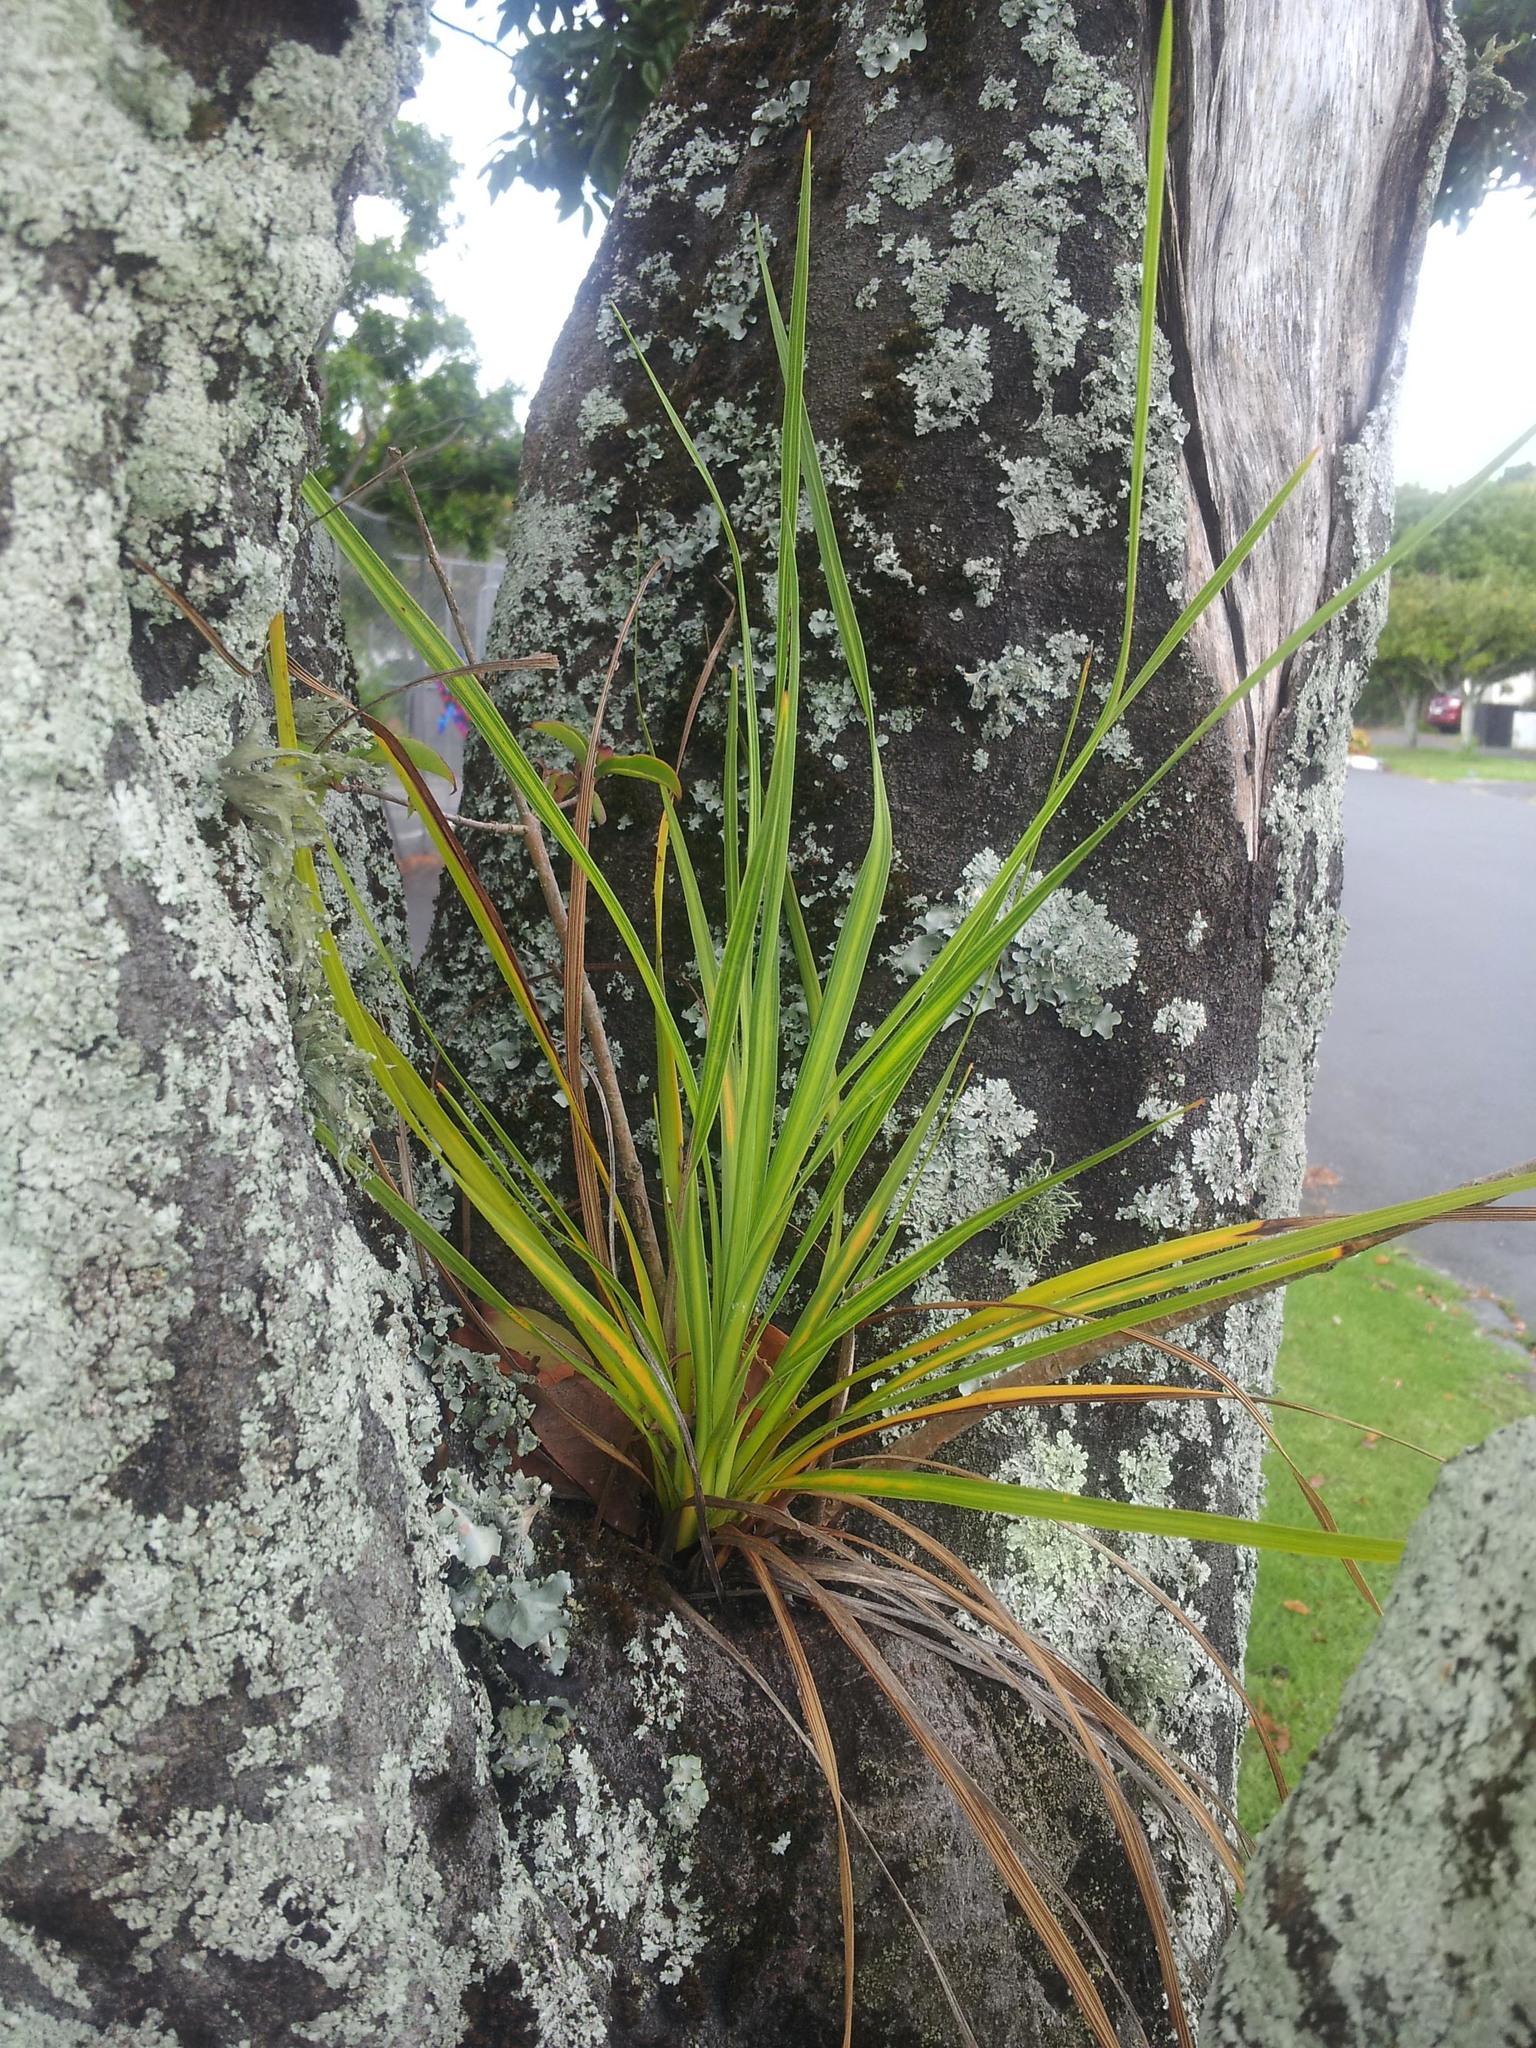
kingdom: Plantae
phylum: Tracheophyta
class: Liliopsida
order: Asparagales
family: Asparagaceae
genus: Cordyline
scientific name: Cordyline australis
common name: Cabbage-palm
